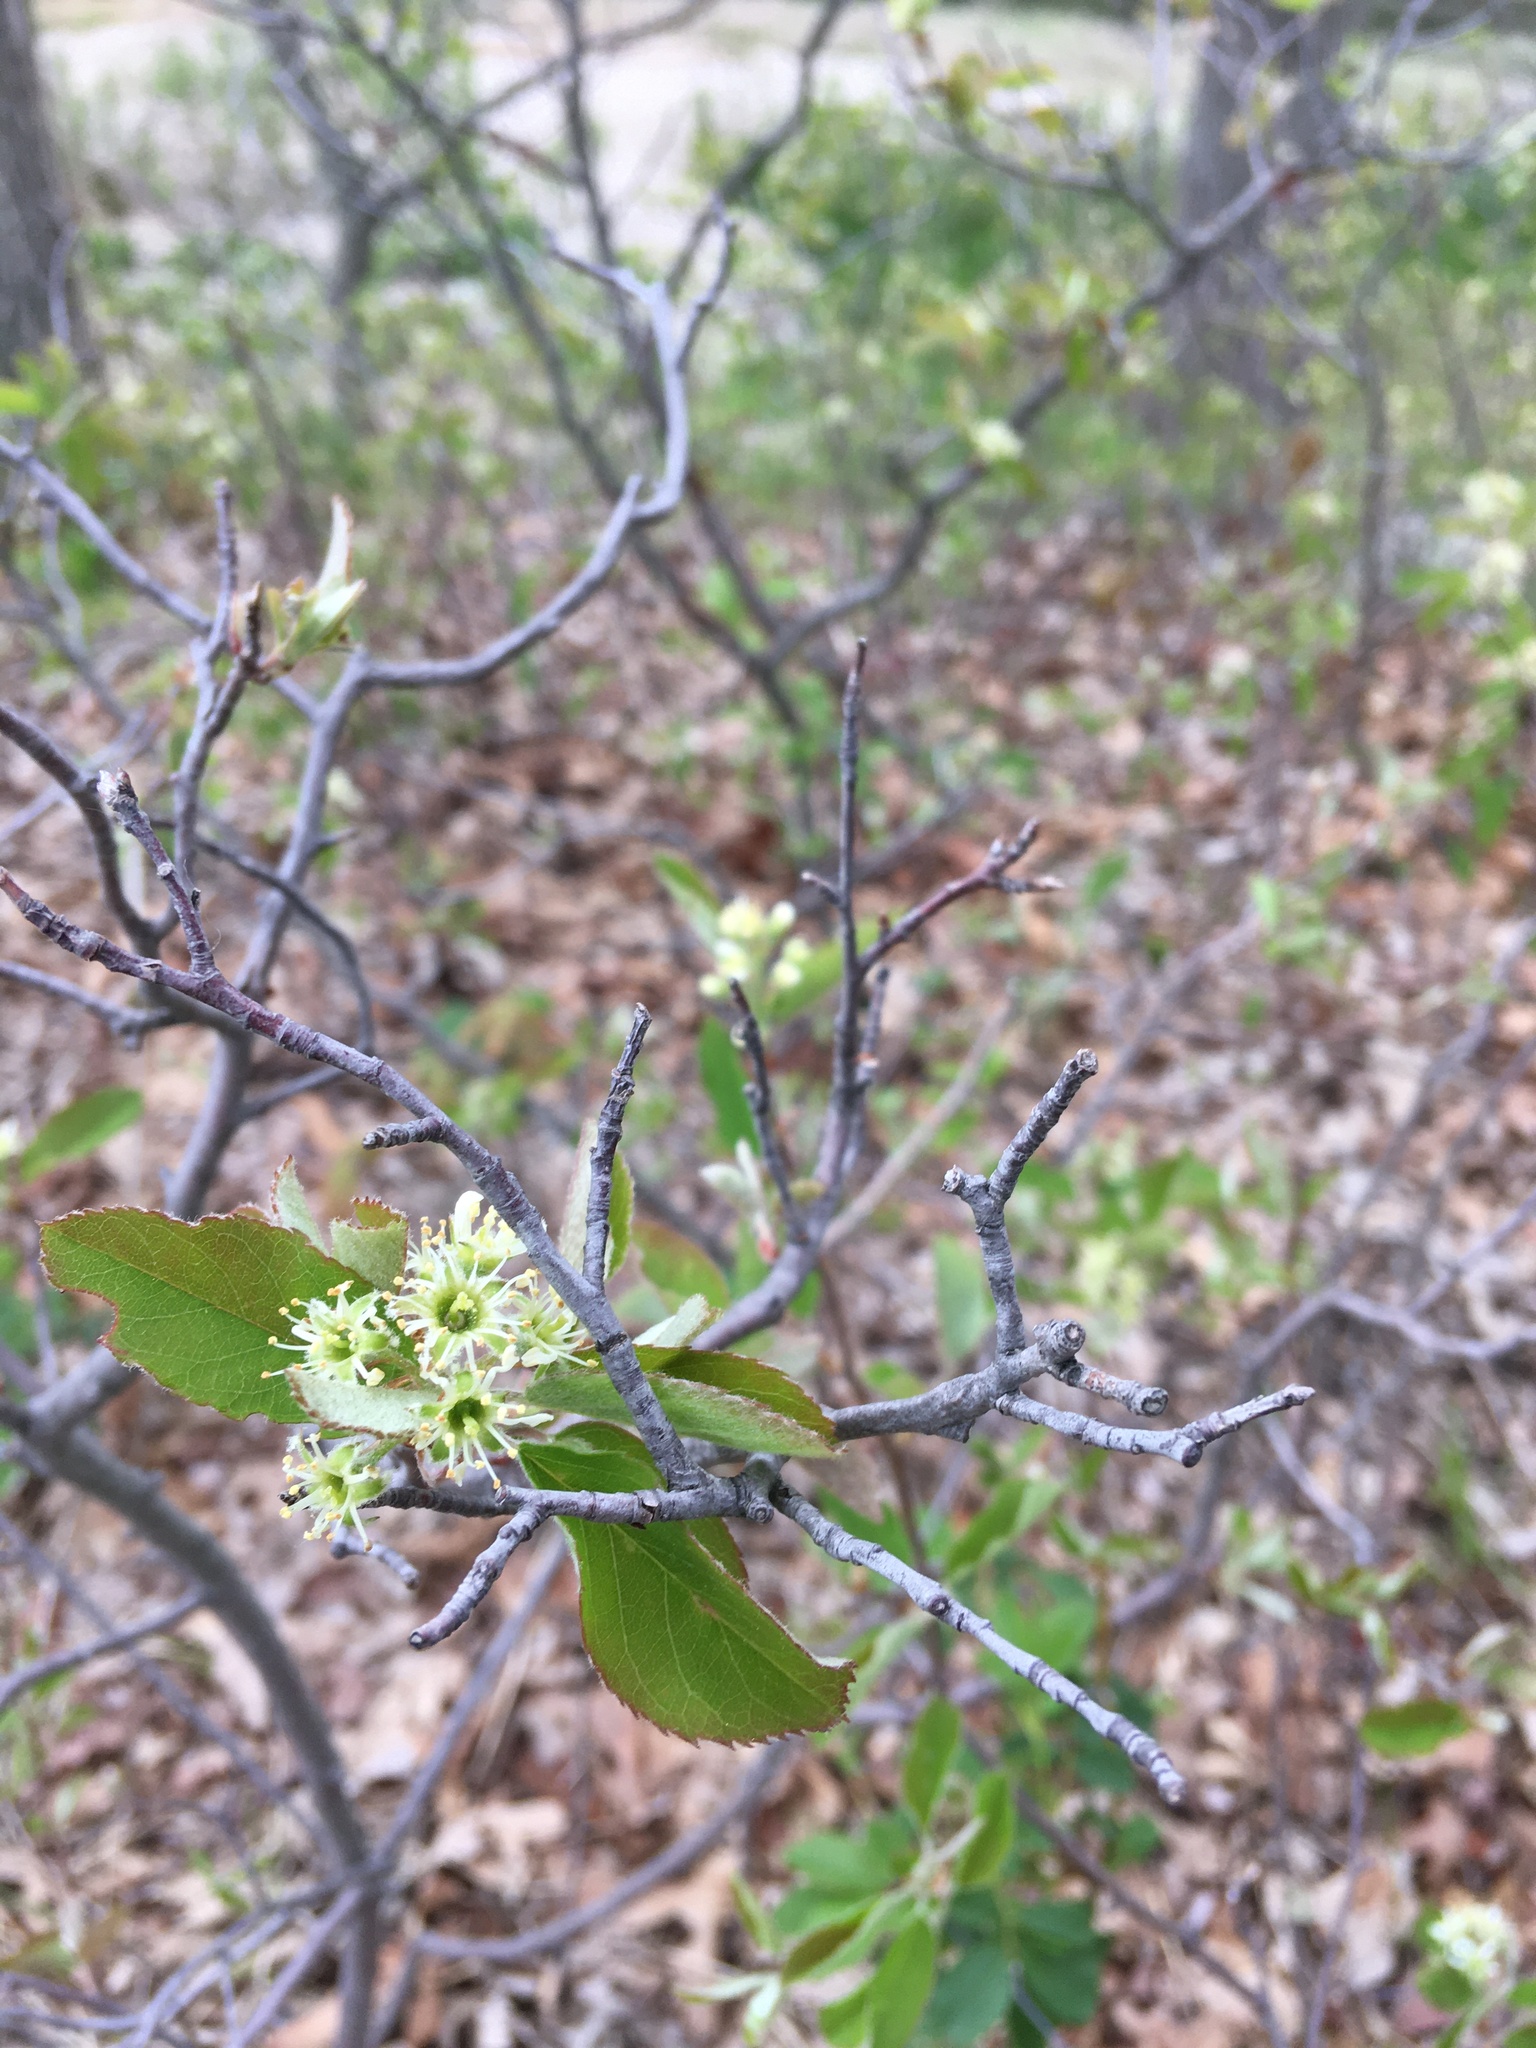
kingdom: Plantae
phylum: Tracheophyta
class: Magnoliopsida
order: Rosales
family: Rosaceae
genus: Amelanchier
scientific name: Amelanchier nantucketensis
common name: Nantucket shadbush
